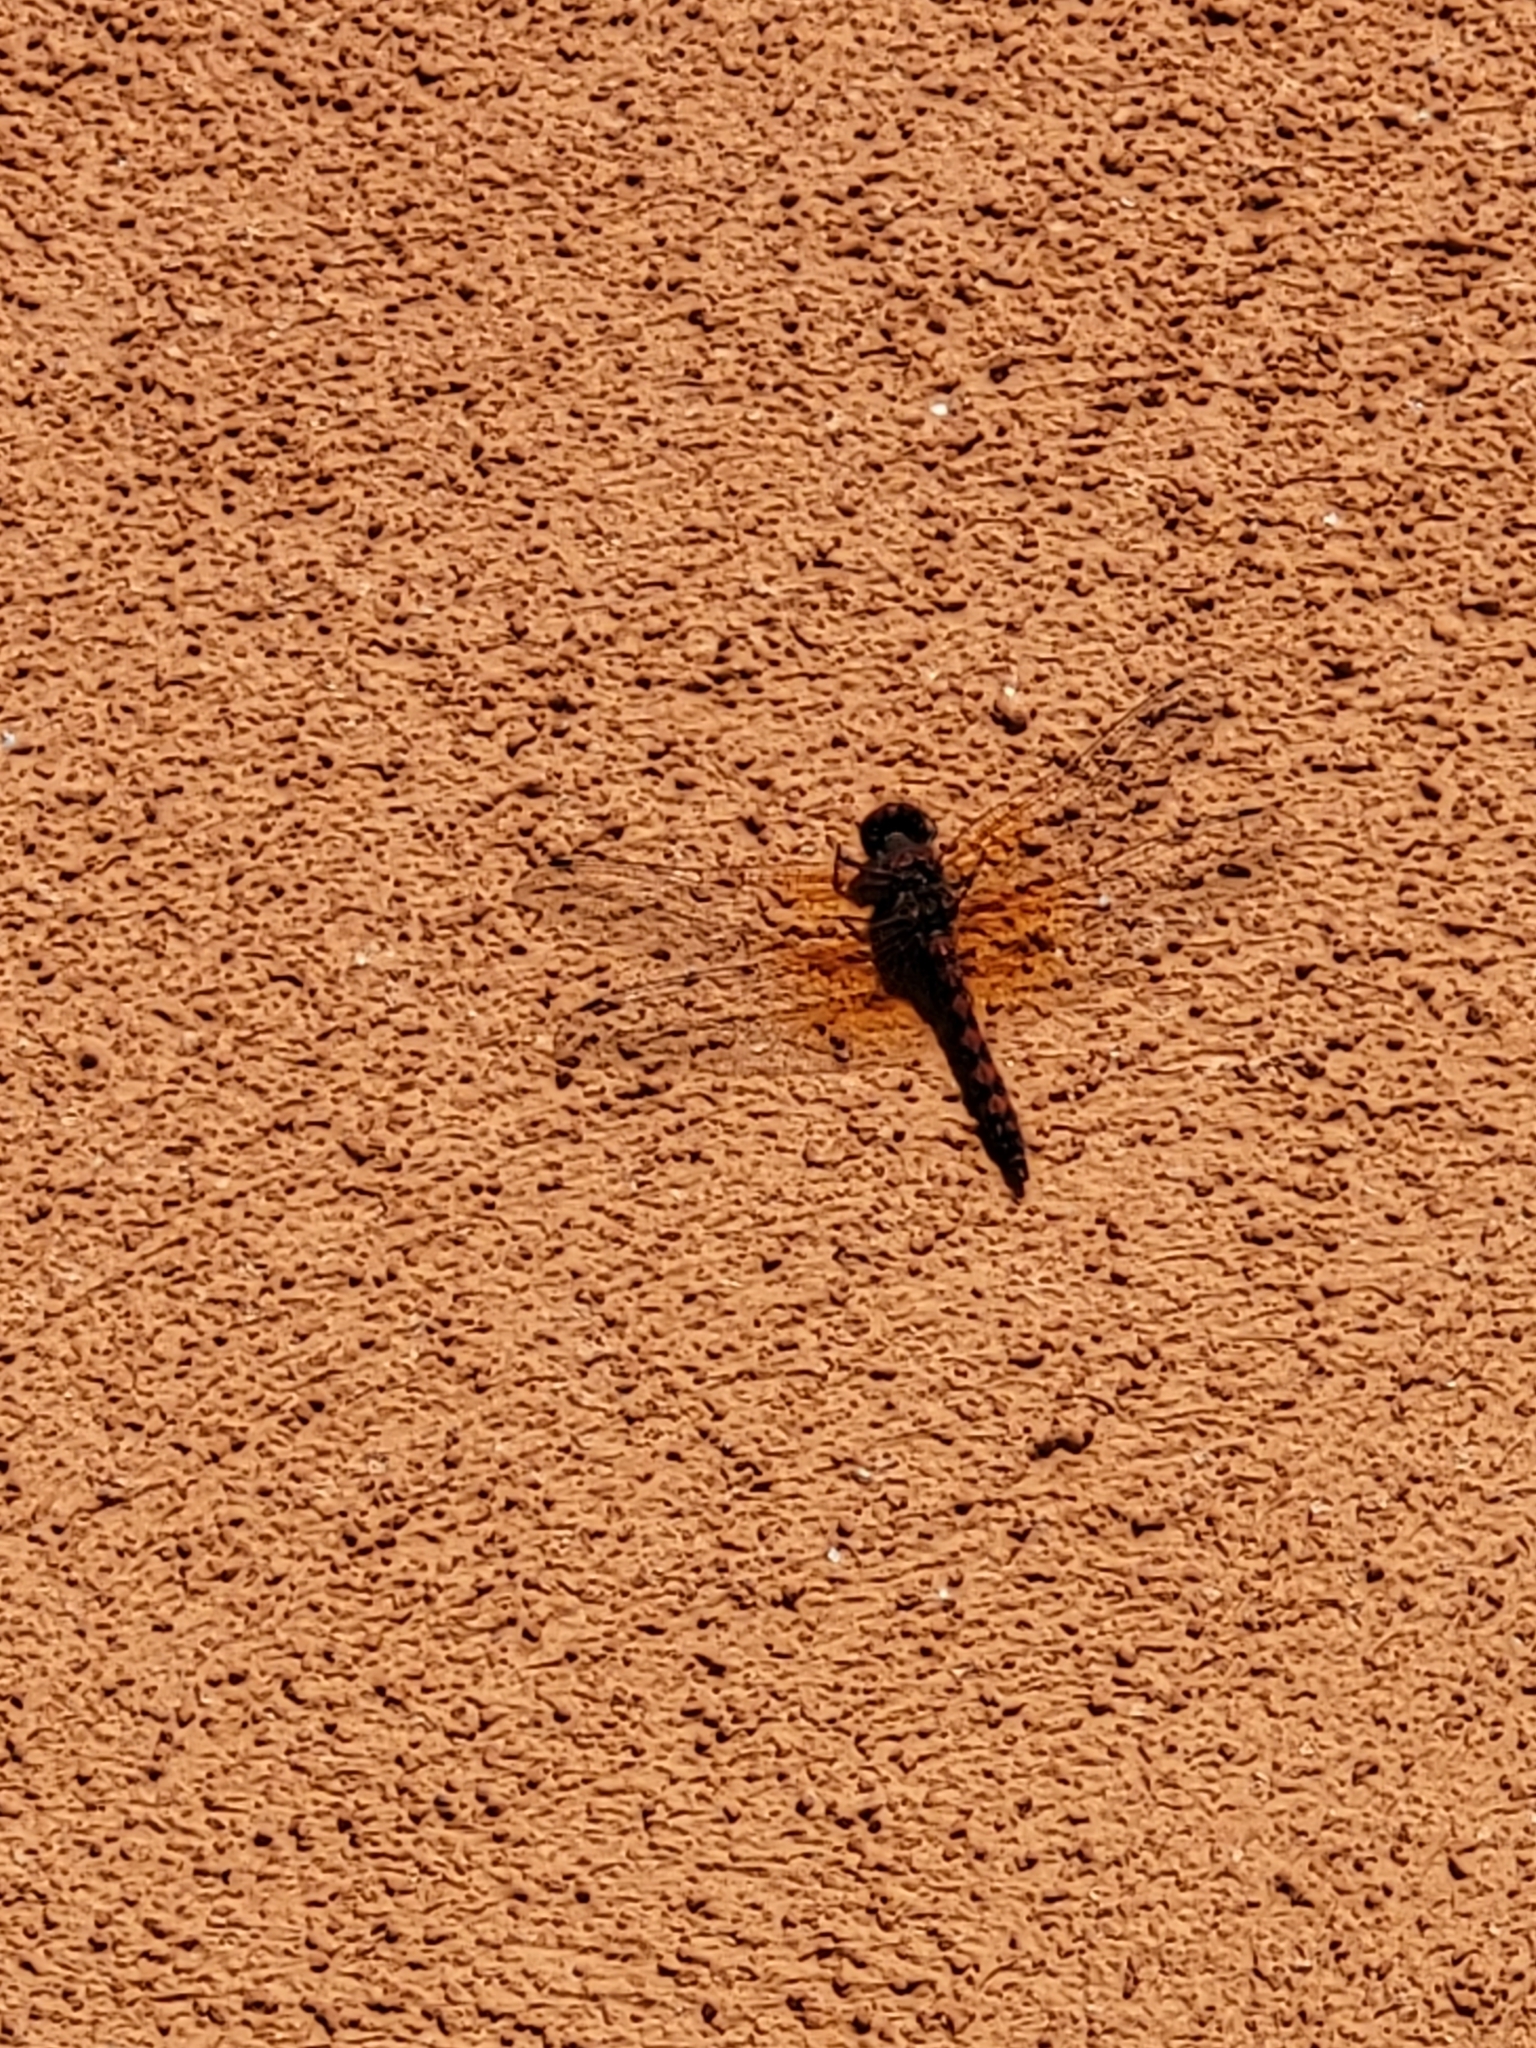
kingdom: Animalia
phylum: Arthropoda
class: Insecta
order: Odonata
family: Libellulidae
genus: Paltothemis
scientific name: Paltothemis lineatipes
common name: Red rock skimmer
